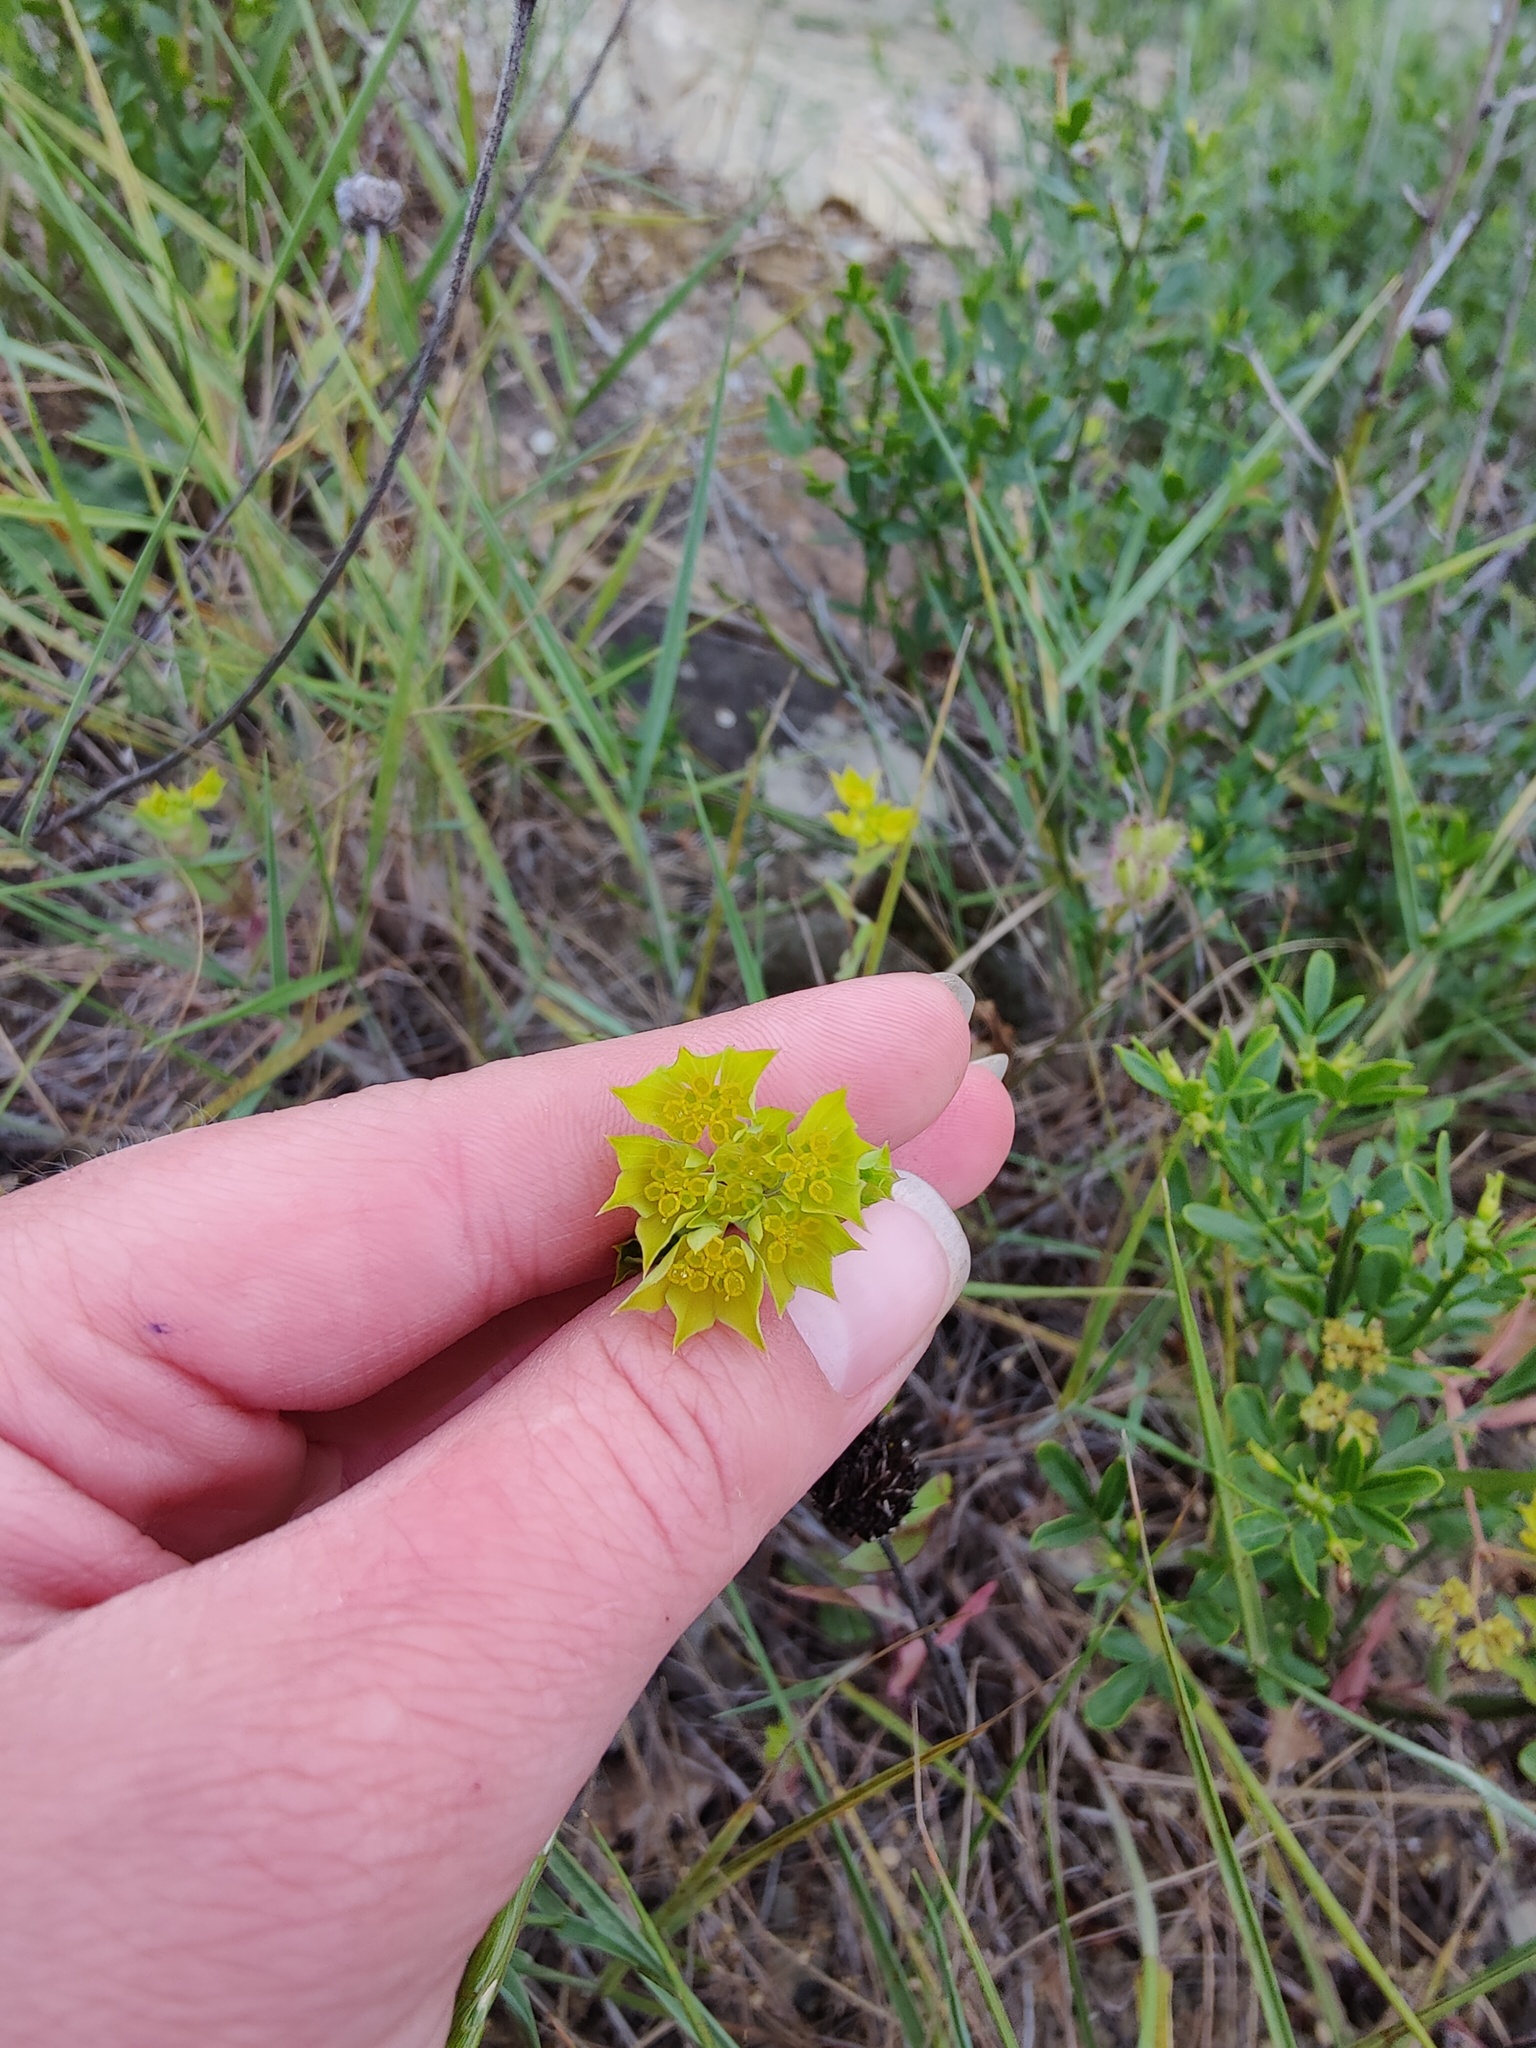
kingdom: Plantae
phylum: Tracheophyta
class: Magnoliopsida
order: Apiales
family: Apiaceae
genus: Bupleurum
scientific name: Bupleurum rotundifolium
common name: Thorow-wax
